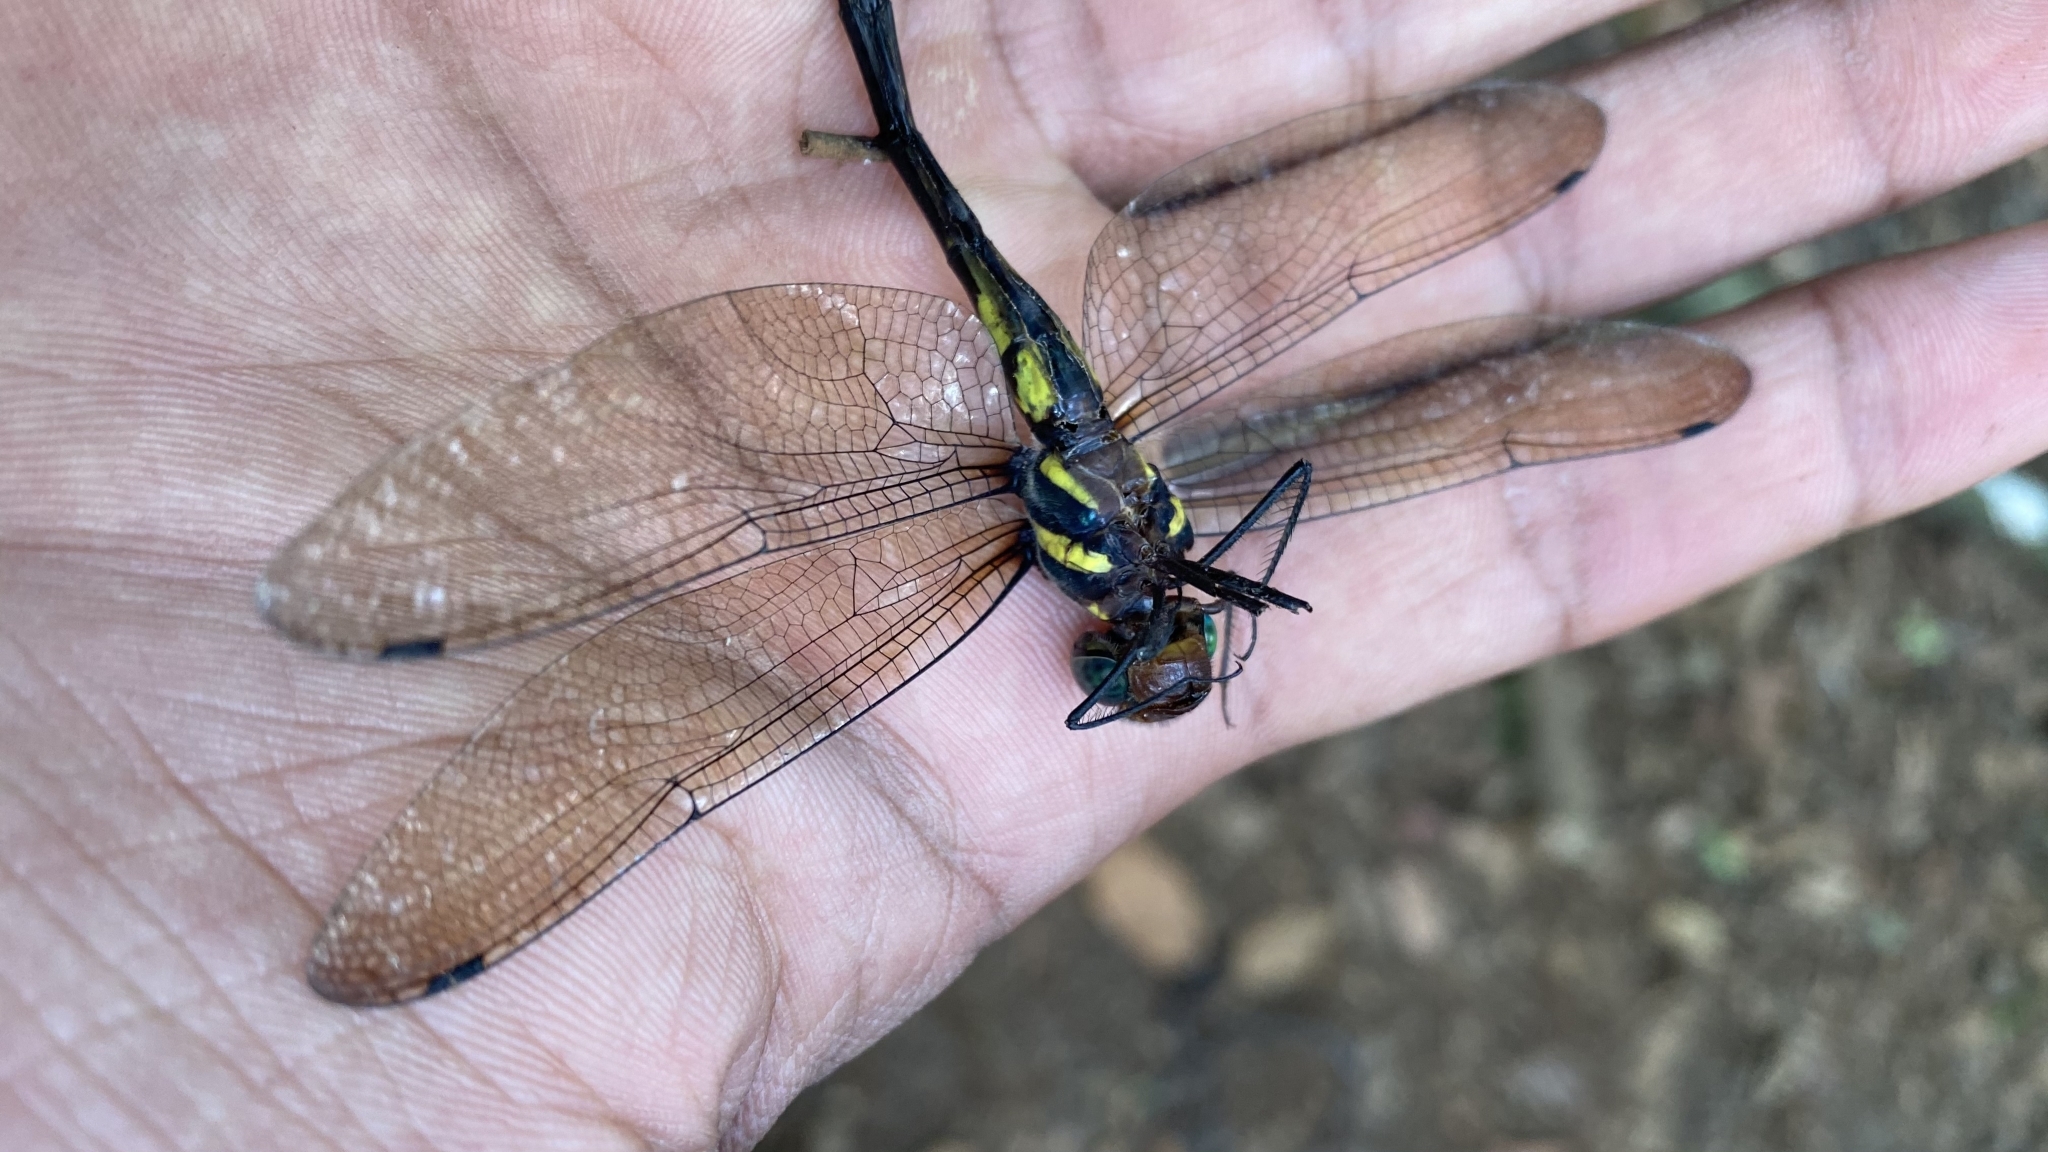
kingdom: Animalia
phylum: Arthropoda
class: Insecta
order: Odonata
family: Macromiidae
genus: Macromia
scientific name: Macromia annaimallaiensis
